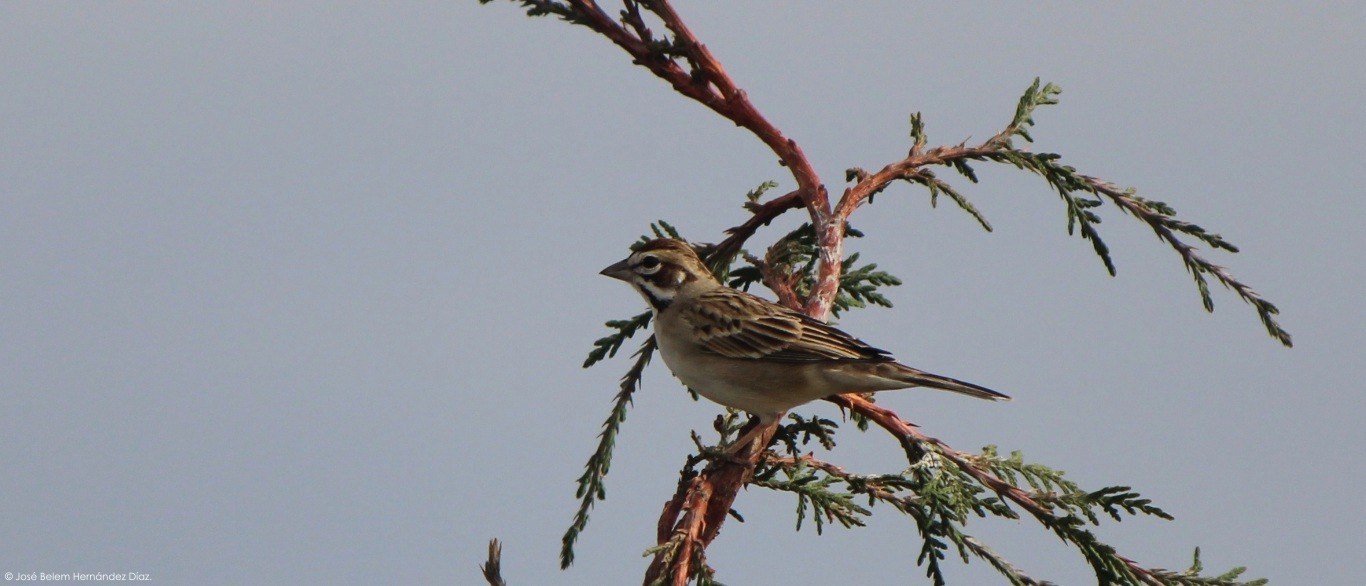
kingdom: Animalia
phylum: Chordata
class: Aves
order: Passeriformes
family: Passerellidae
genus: Chondestes
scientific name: Chondestes grammacus
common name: Lark sparrow
